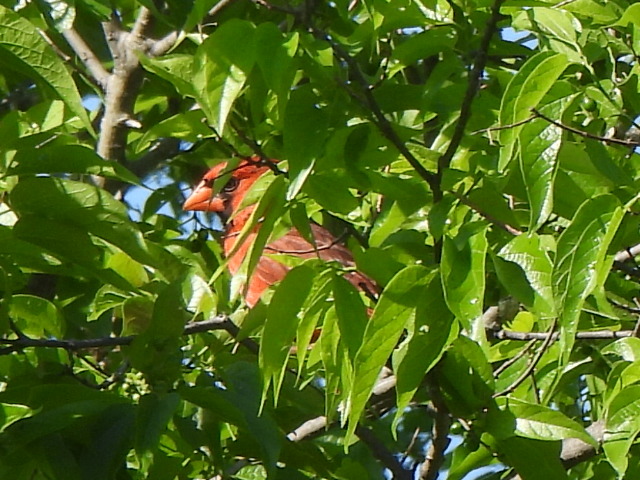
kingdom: Animalia
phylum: Chordata
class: Aves
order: Passeriformes
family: Cardinalidae
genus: Cardinalis
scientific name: Cardinalis cardinalis
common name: Northern cardinal
